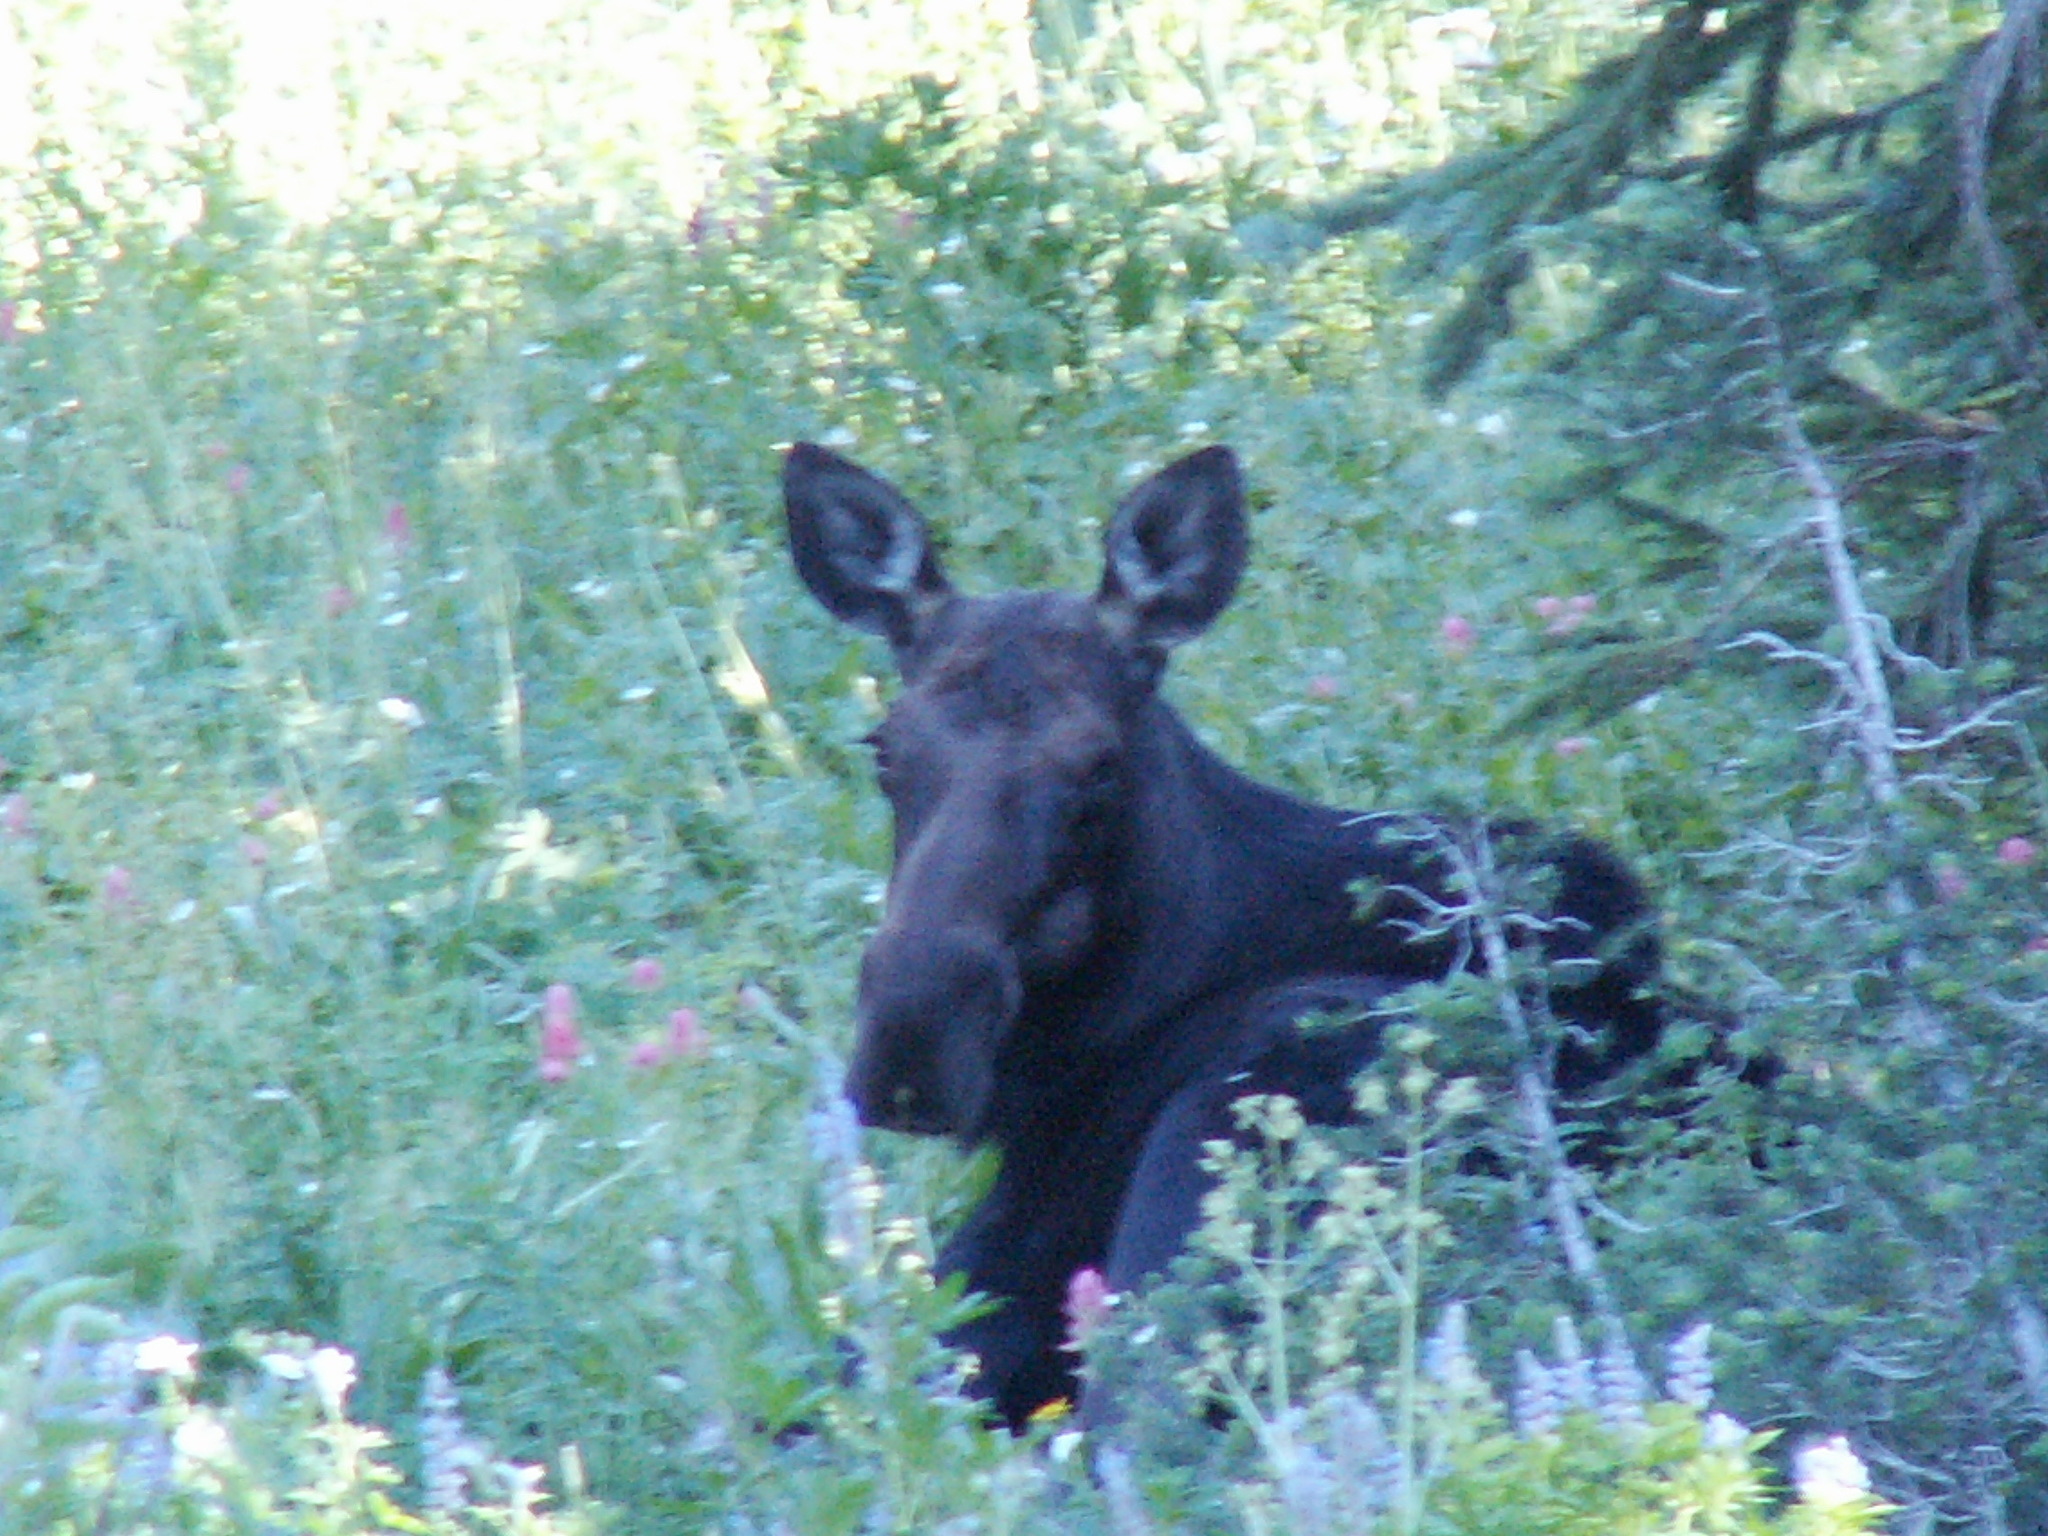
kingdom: Animalia
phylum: Chordata
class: Mammalia
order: Artiodactyla
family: Cervidae
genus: Alces
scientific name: Alces alces
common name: Moose
